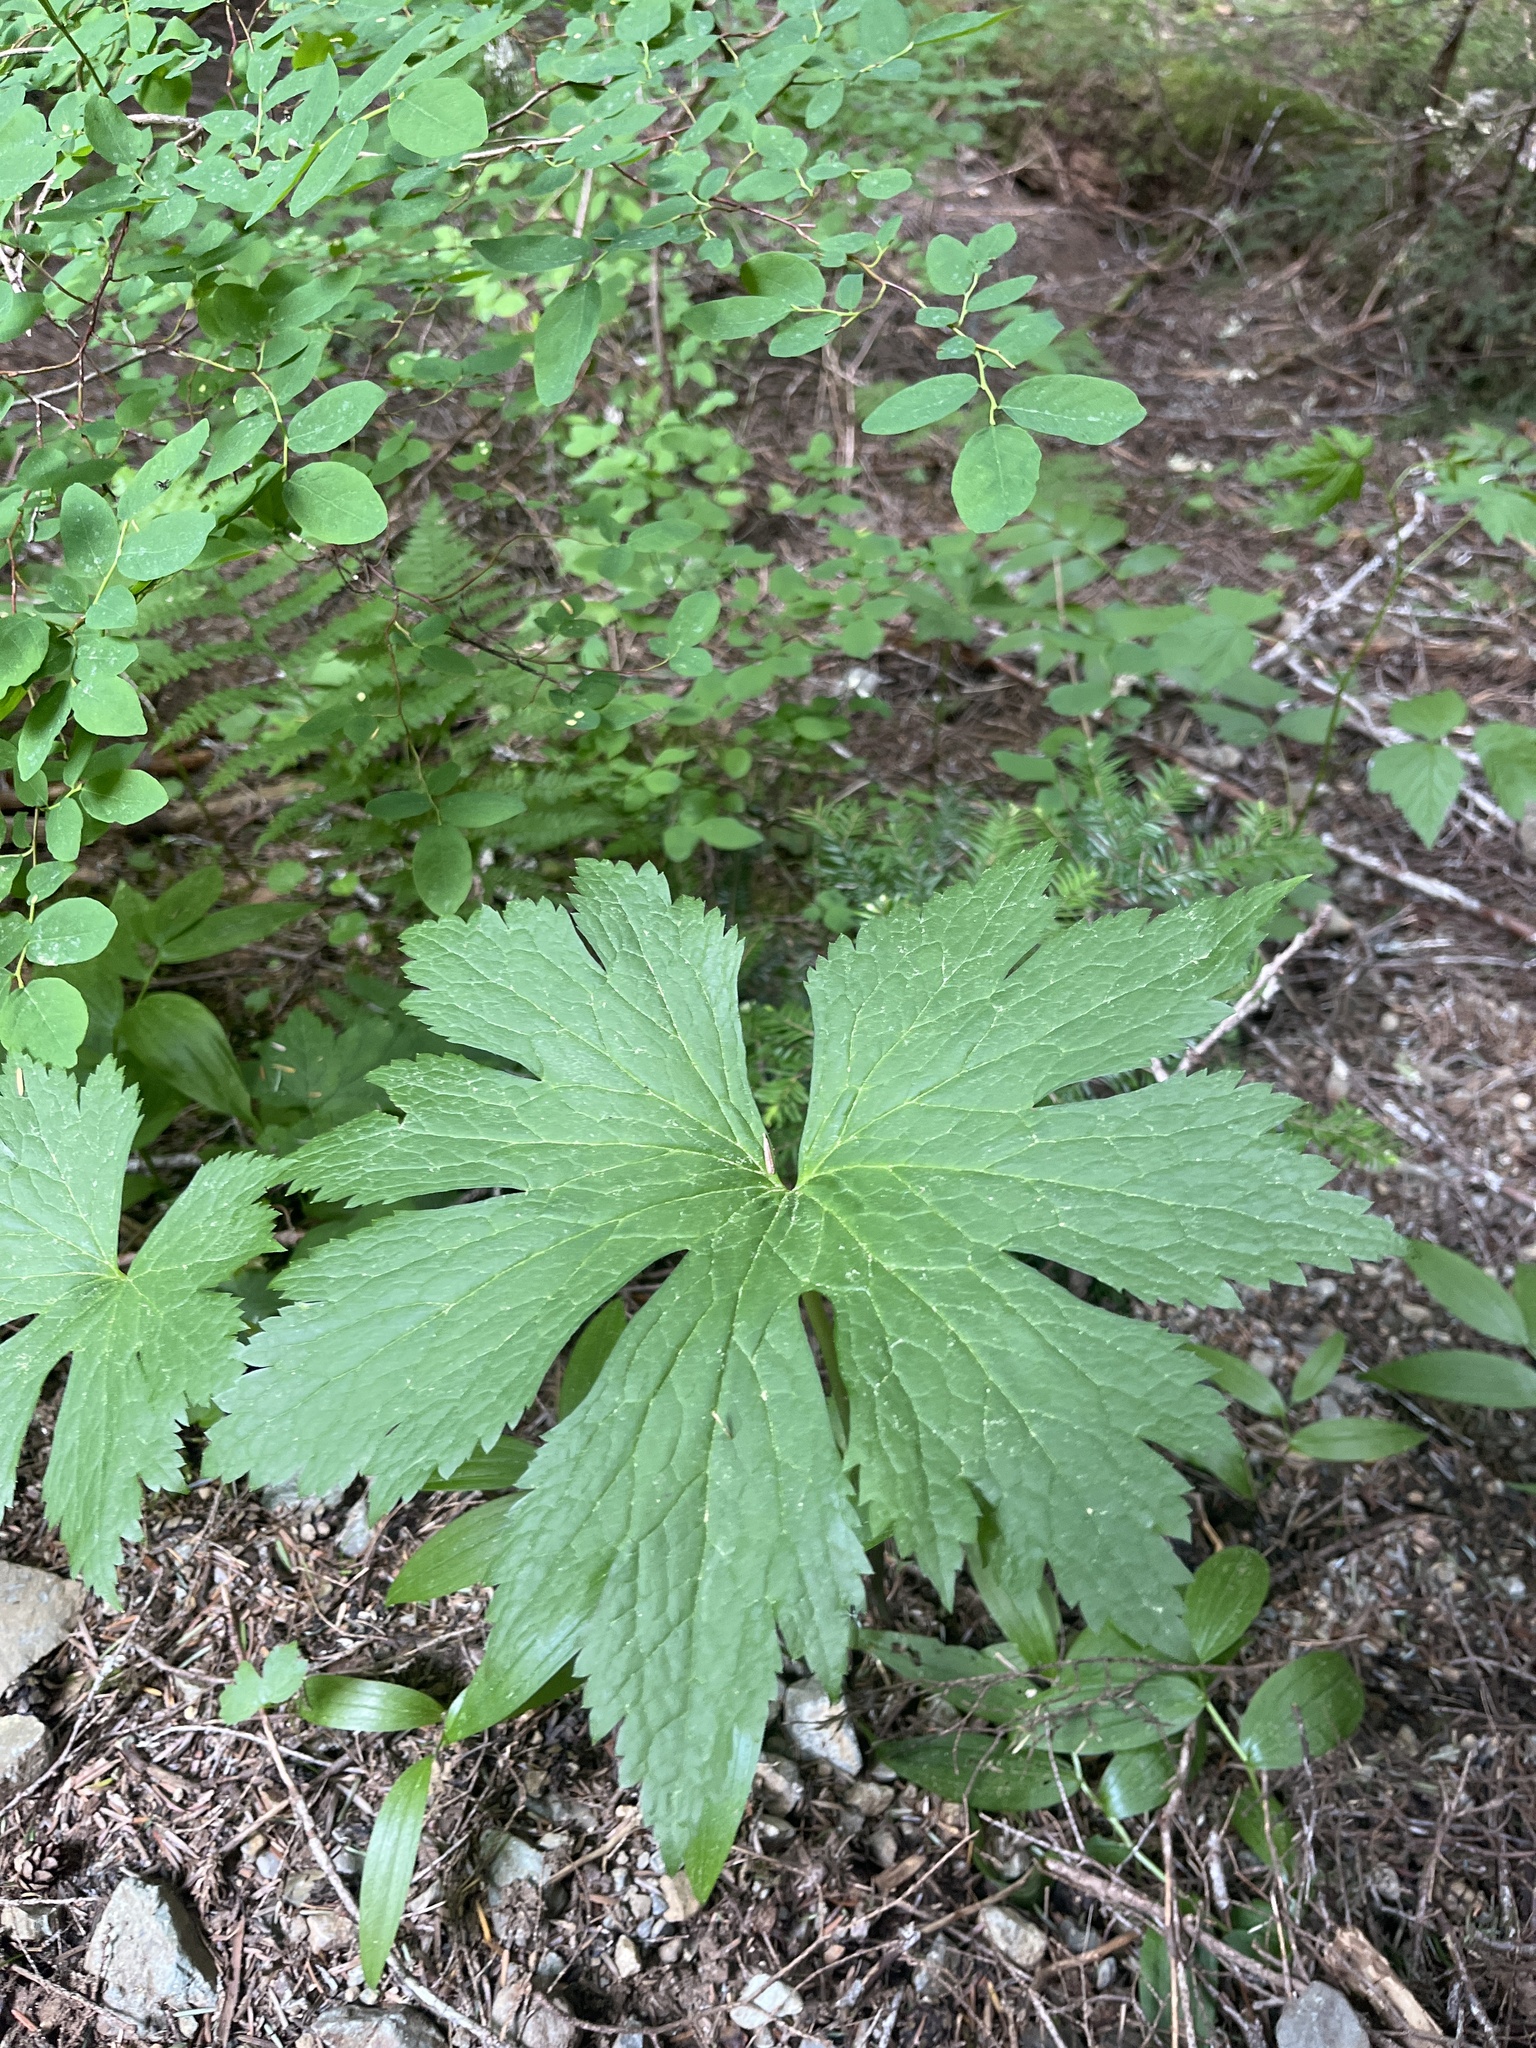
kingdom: Plantae
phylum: Tracheophyta
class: Magnoliopsida
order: Ranunculales
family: Ranunculaceae
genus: Trautvetteria
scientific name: Trautvetteria carolinensis
